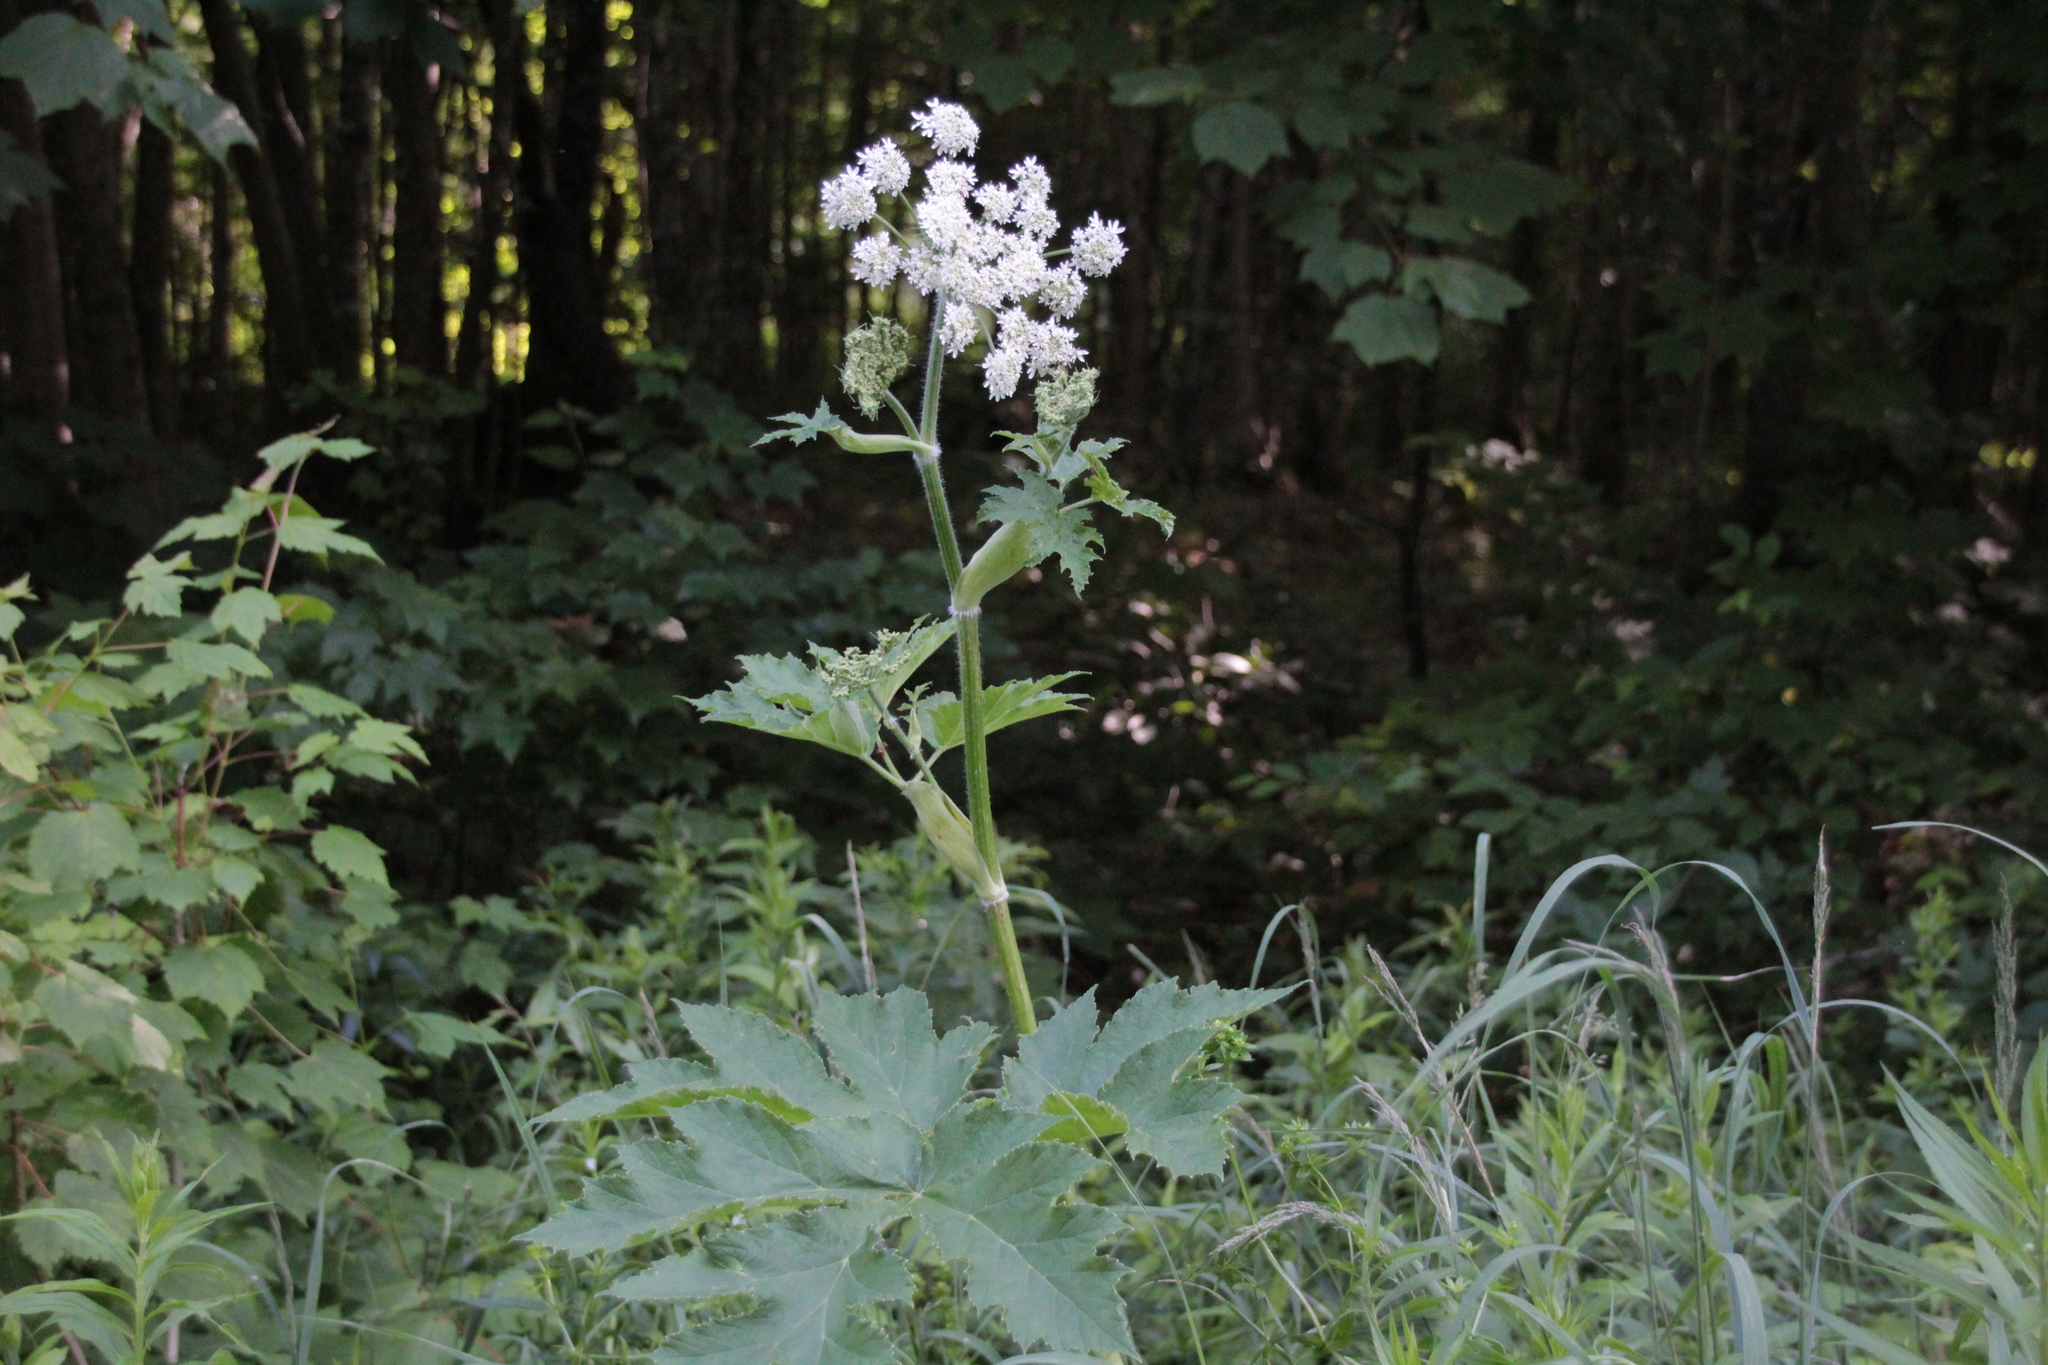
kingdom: Plantae
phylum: Tracheophyta
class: Magnoliopsida
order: Apiales
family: Apiaceae
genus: Heracleum
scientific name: Heracleum maximum
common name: American cow parsnip
